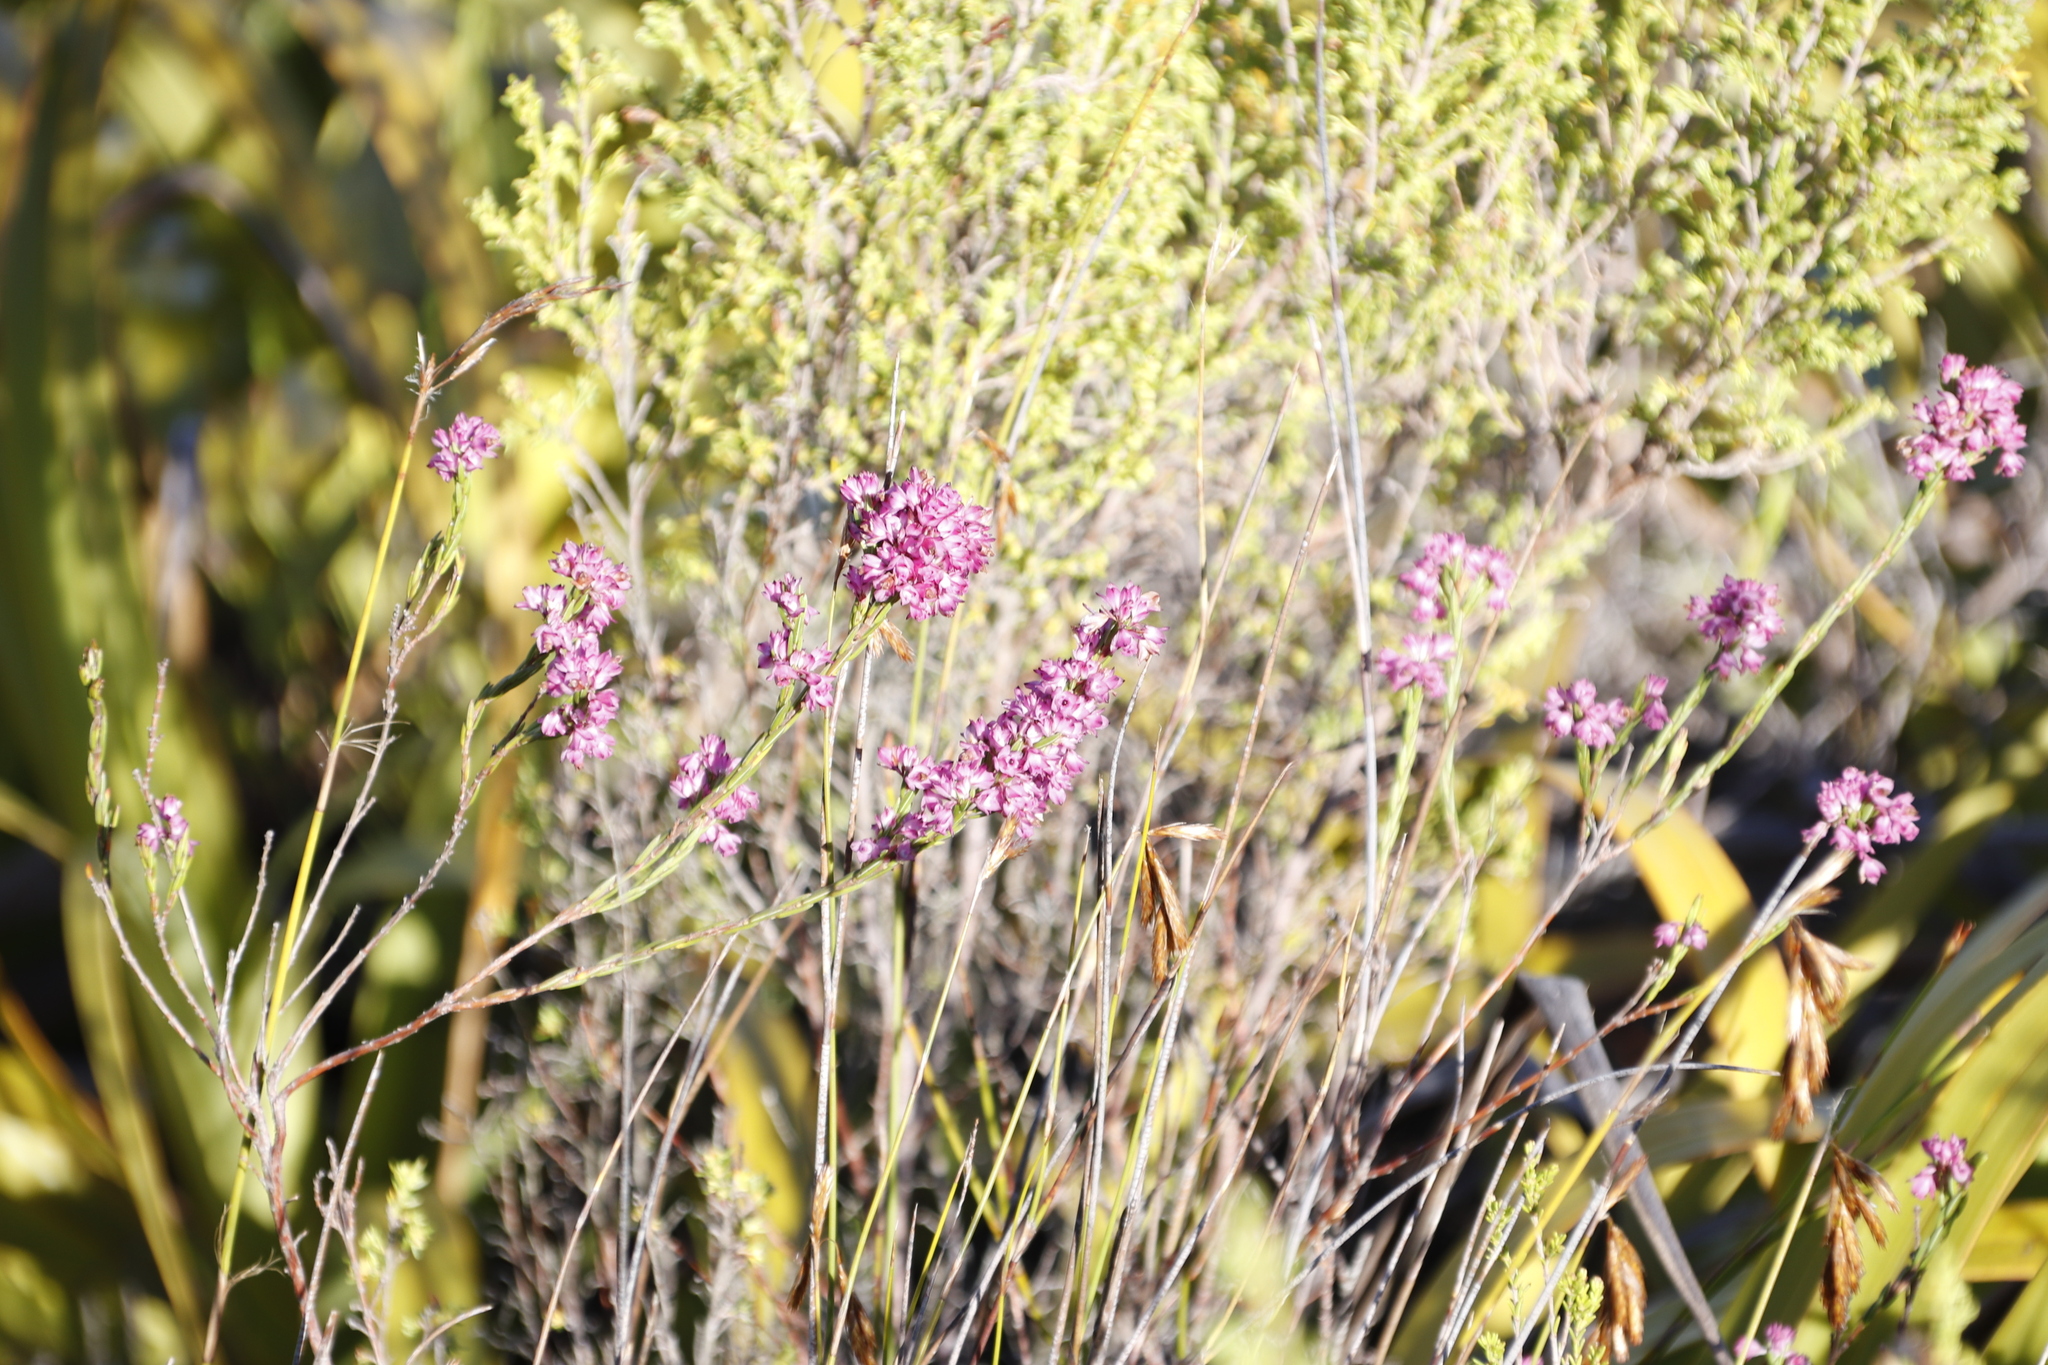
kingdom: Plantae
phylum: Tracheophyta
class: Magnoliopsida
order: Ericales
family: Ericaceae
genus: Erica
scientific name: Erica corifolia
